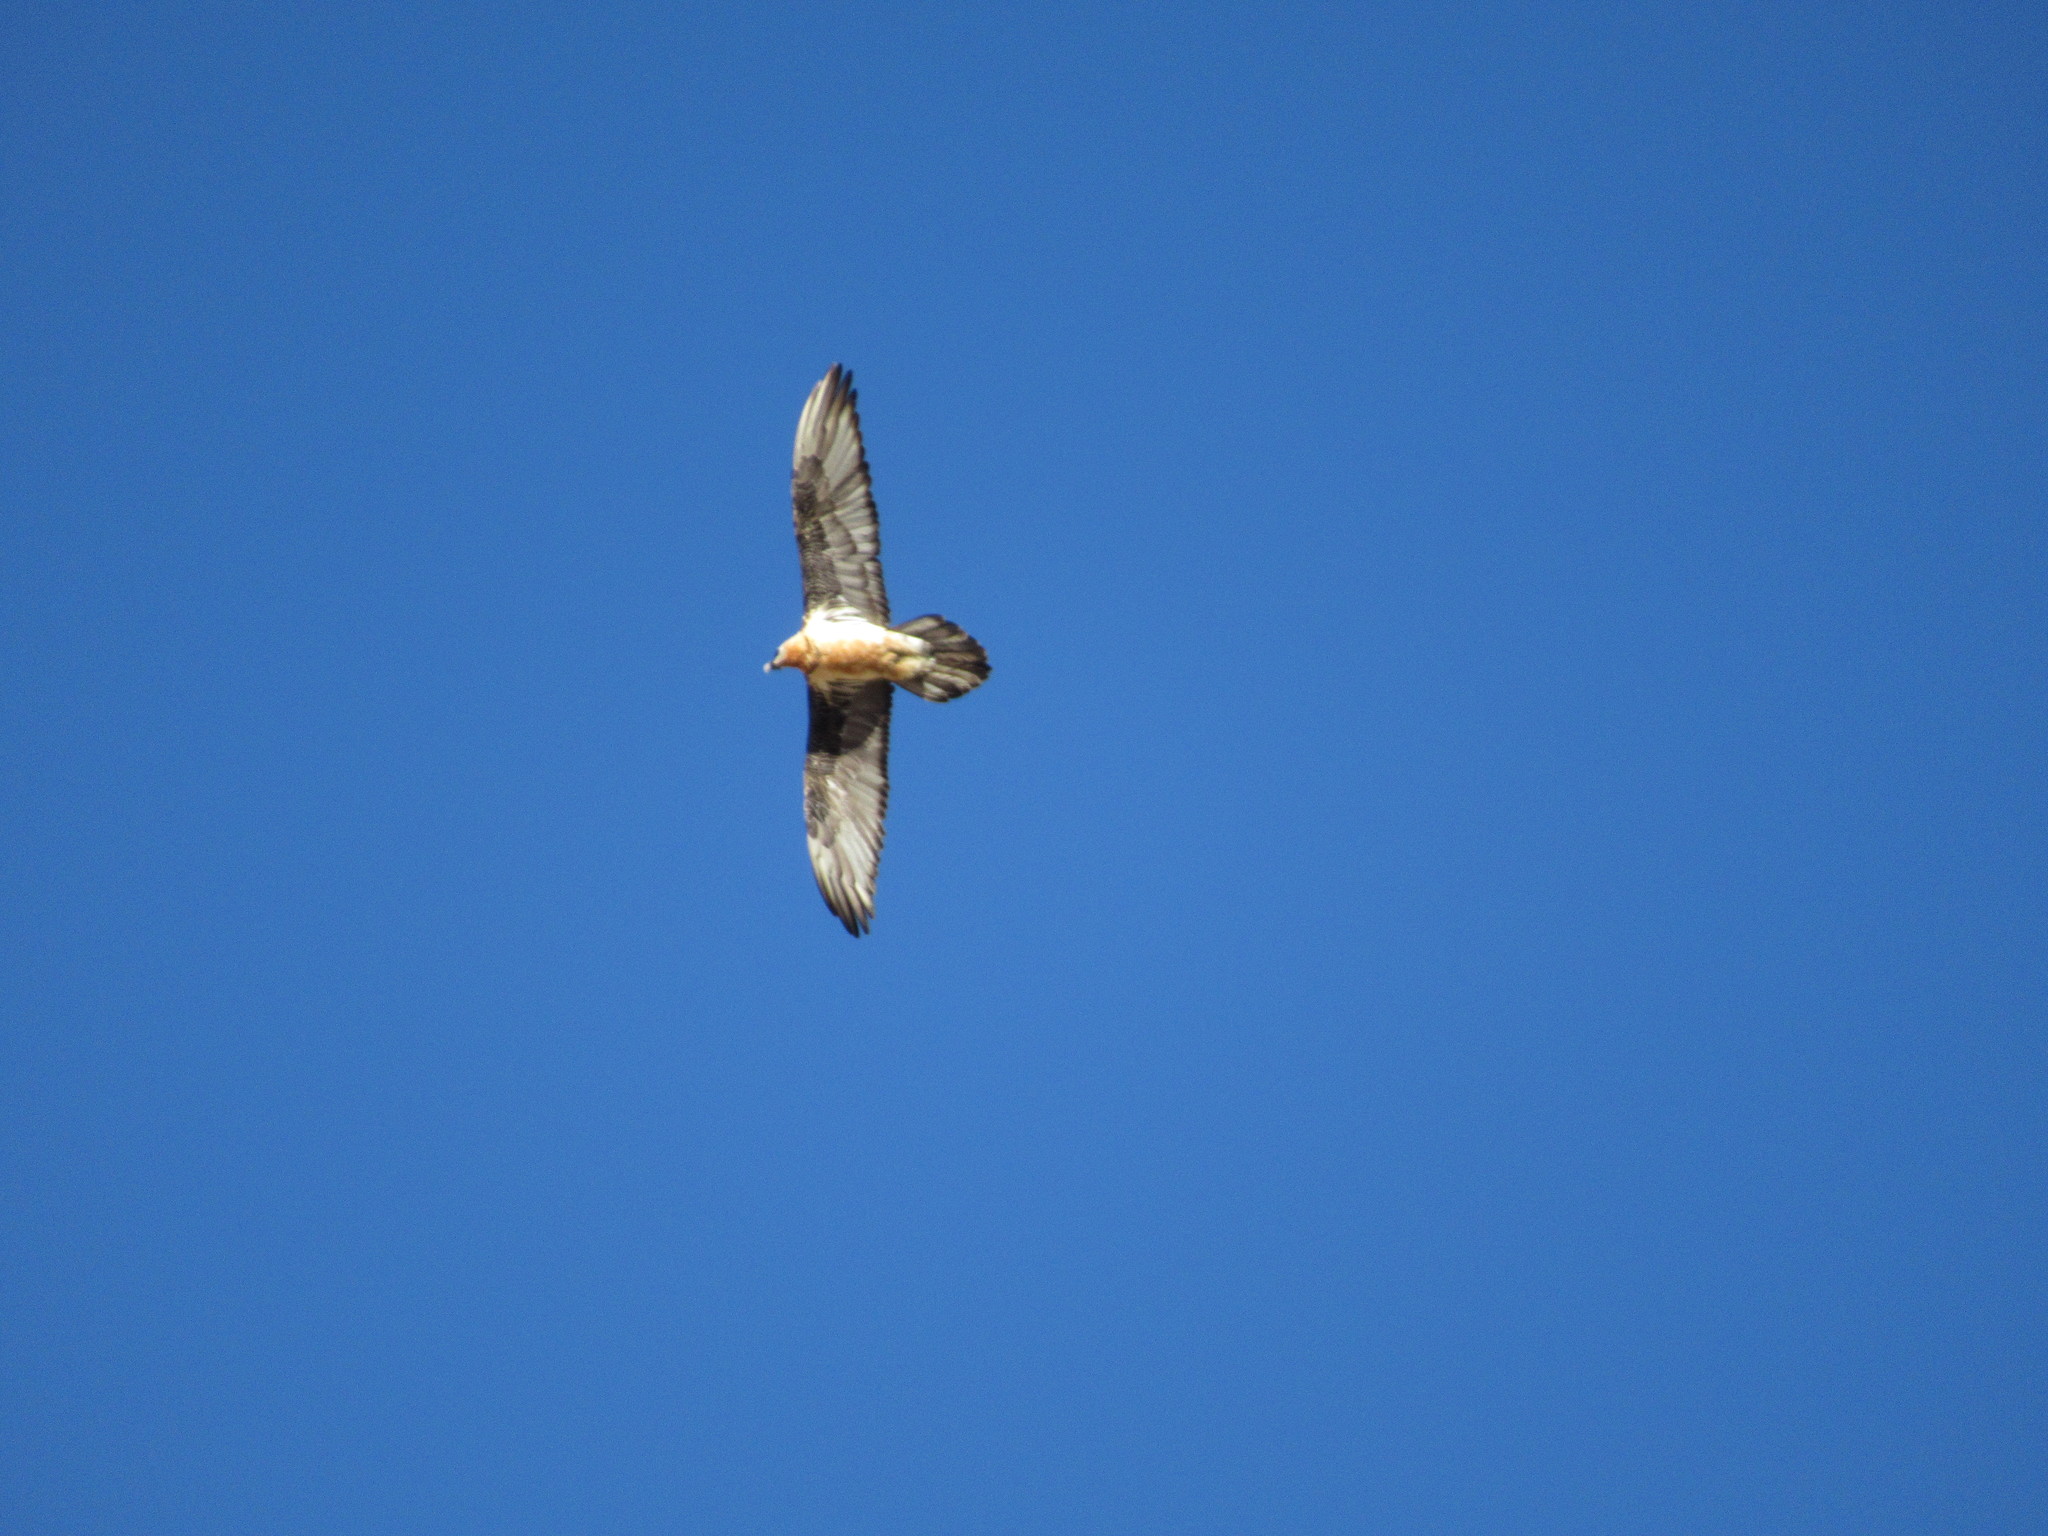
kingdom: Animalia
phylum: Chordata
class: Aves
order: Accipitriformes
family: Accipitridae
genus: Gypaetus
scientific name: Gypaetus barbatus
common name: Bearded vulture
